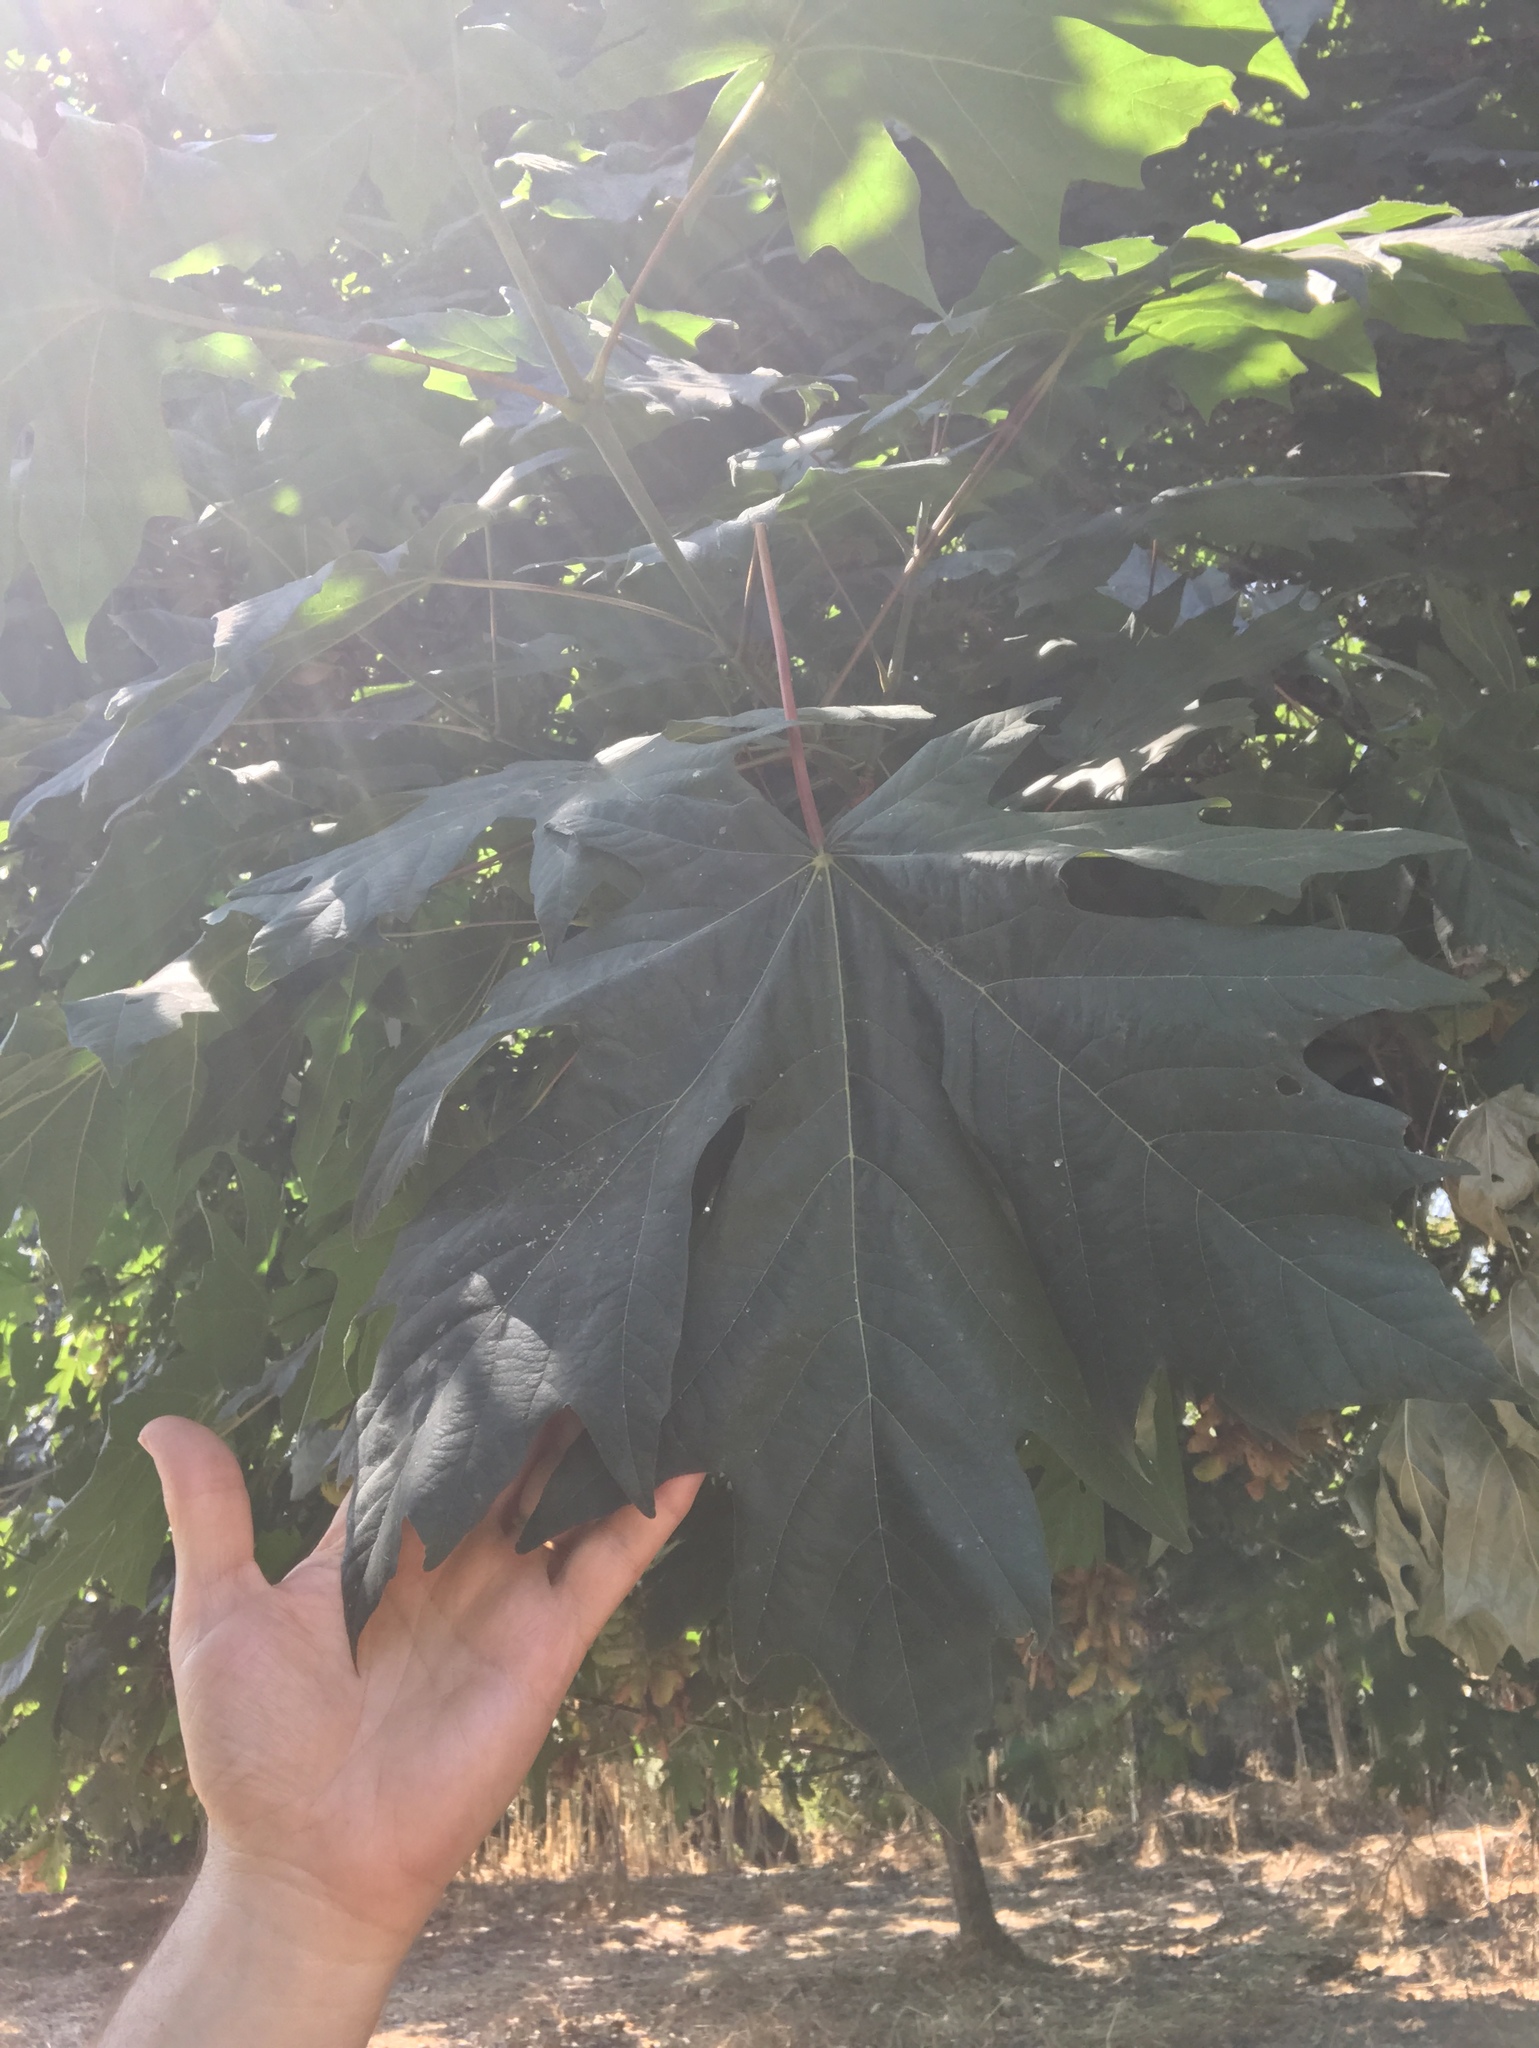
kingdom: Plantae
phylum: Tracheophyta
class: Magnoliopsida
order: Sapindales
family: Sapindaceae
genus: Acer
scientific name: Acer macrophyllum
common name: Oregon maple
